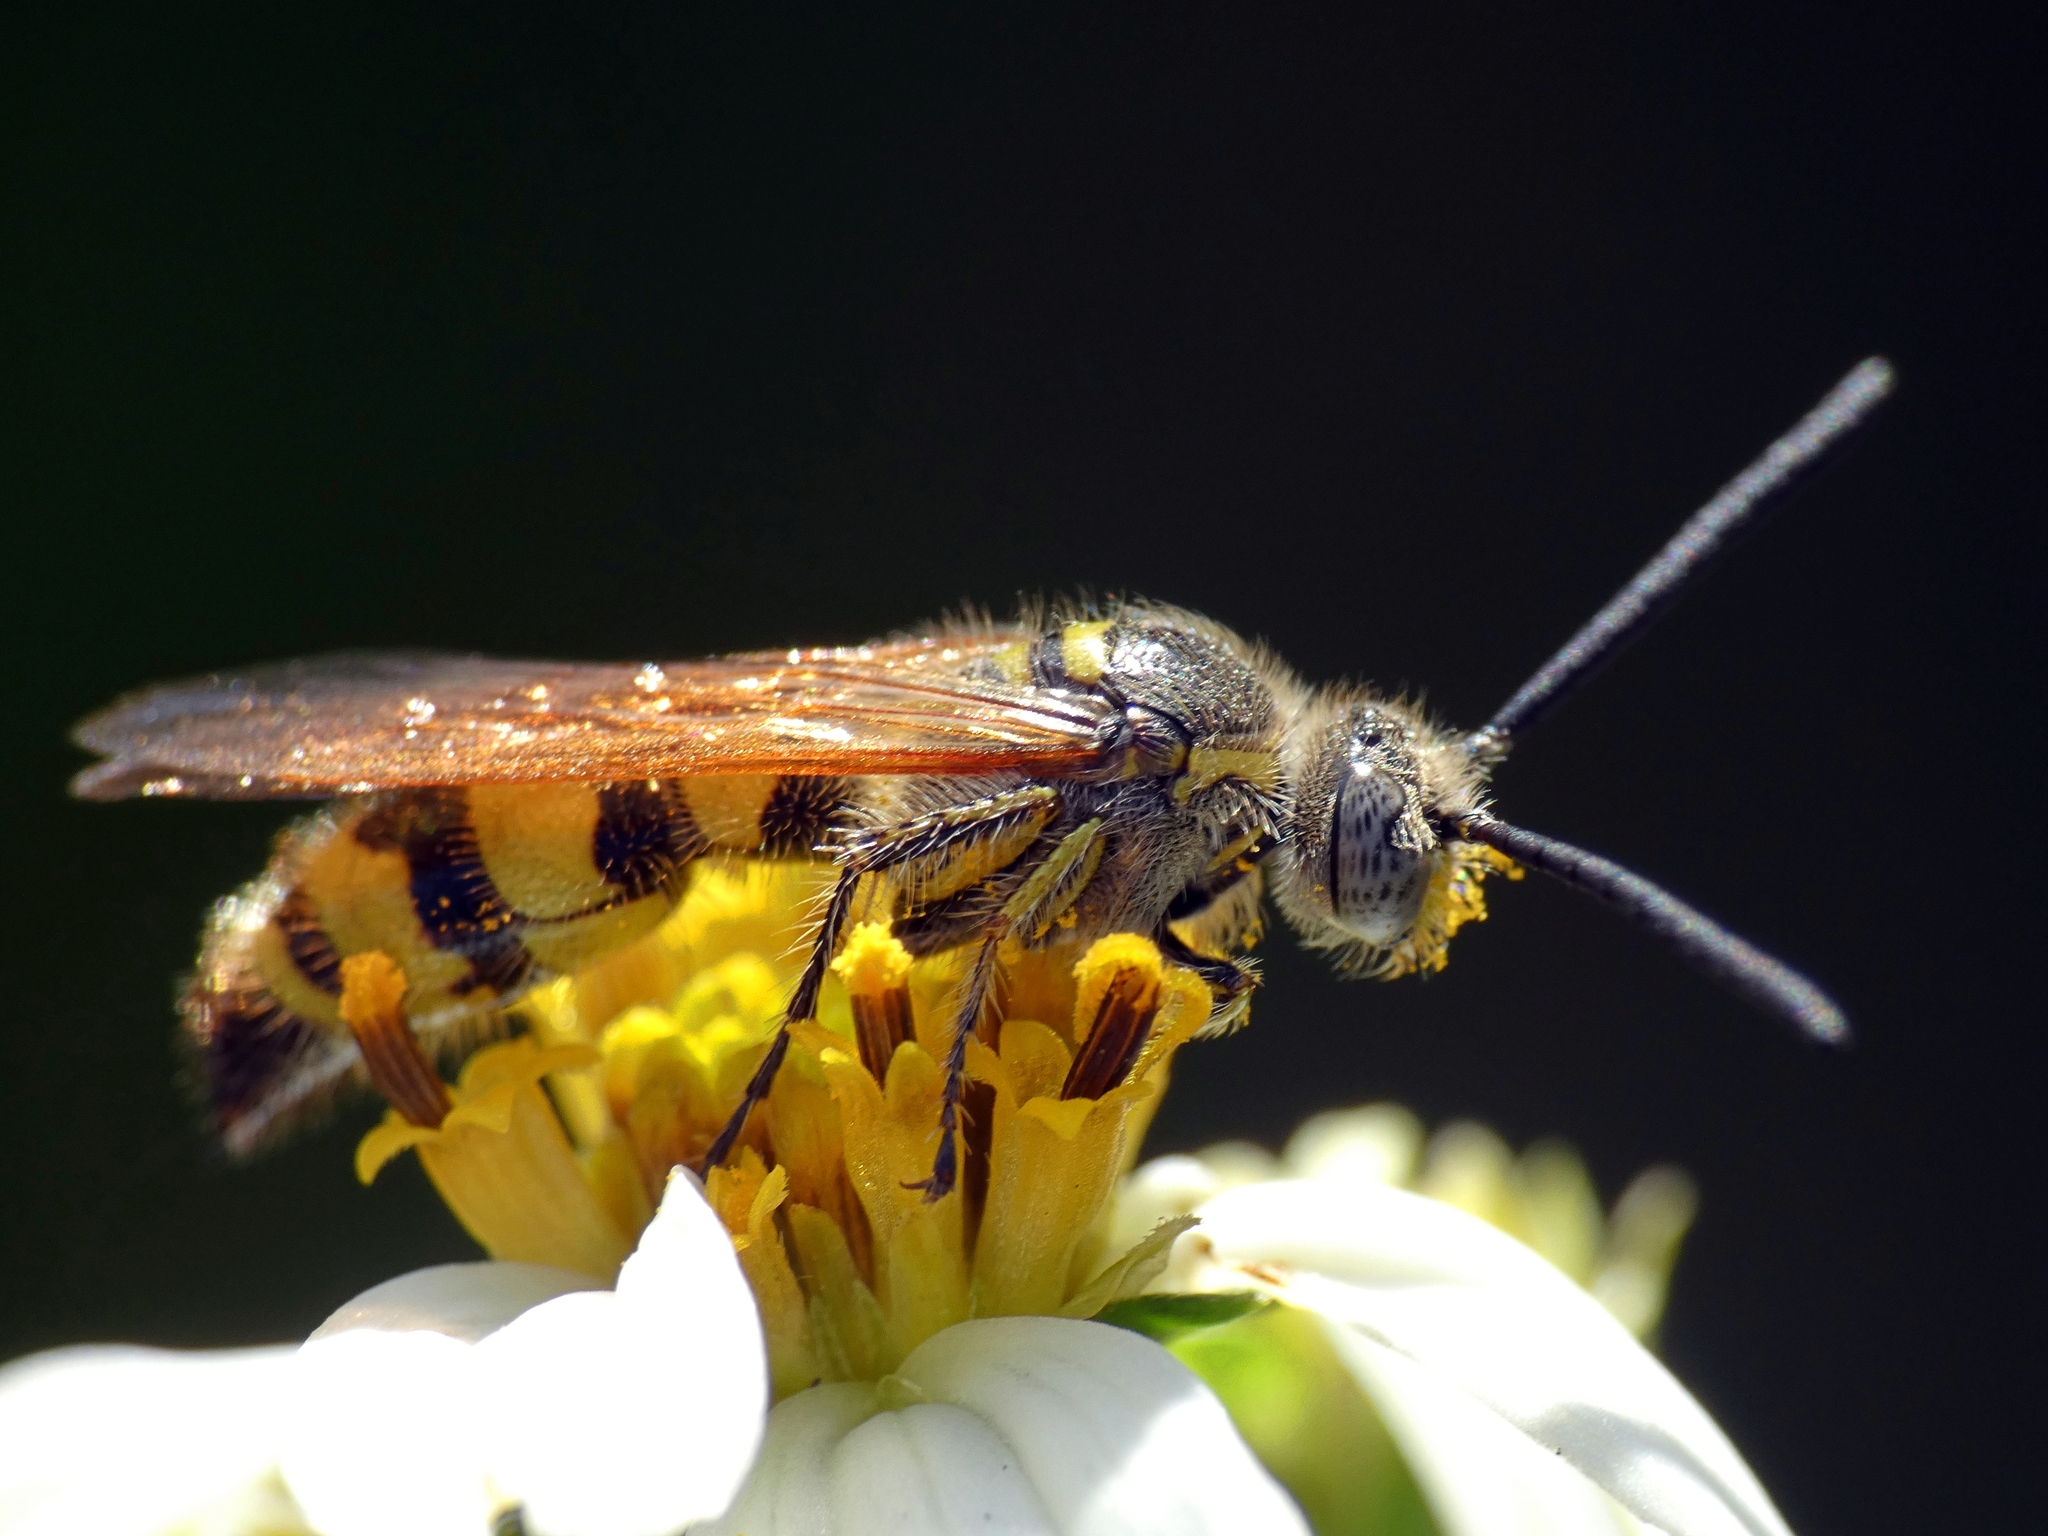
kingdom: Animalia
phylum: Arthropoda
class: Insecta
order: Hymenoptera
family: Scoliidae
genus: Dielis
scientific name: Dielis
